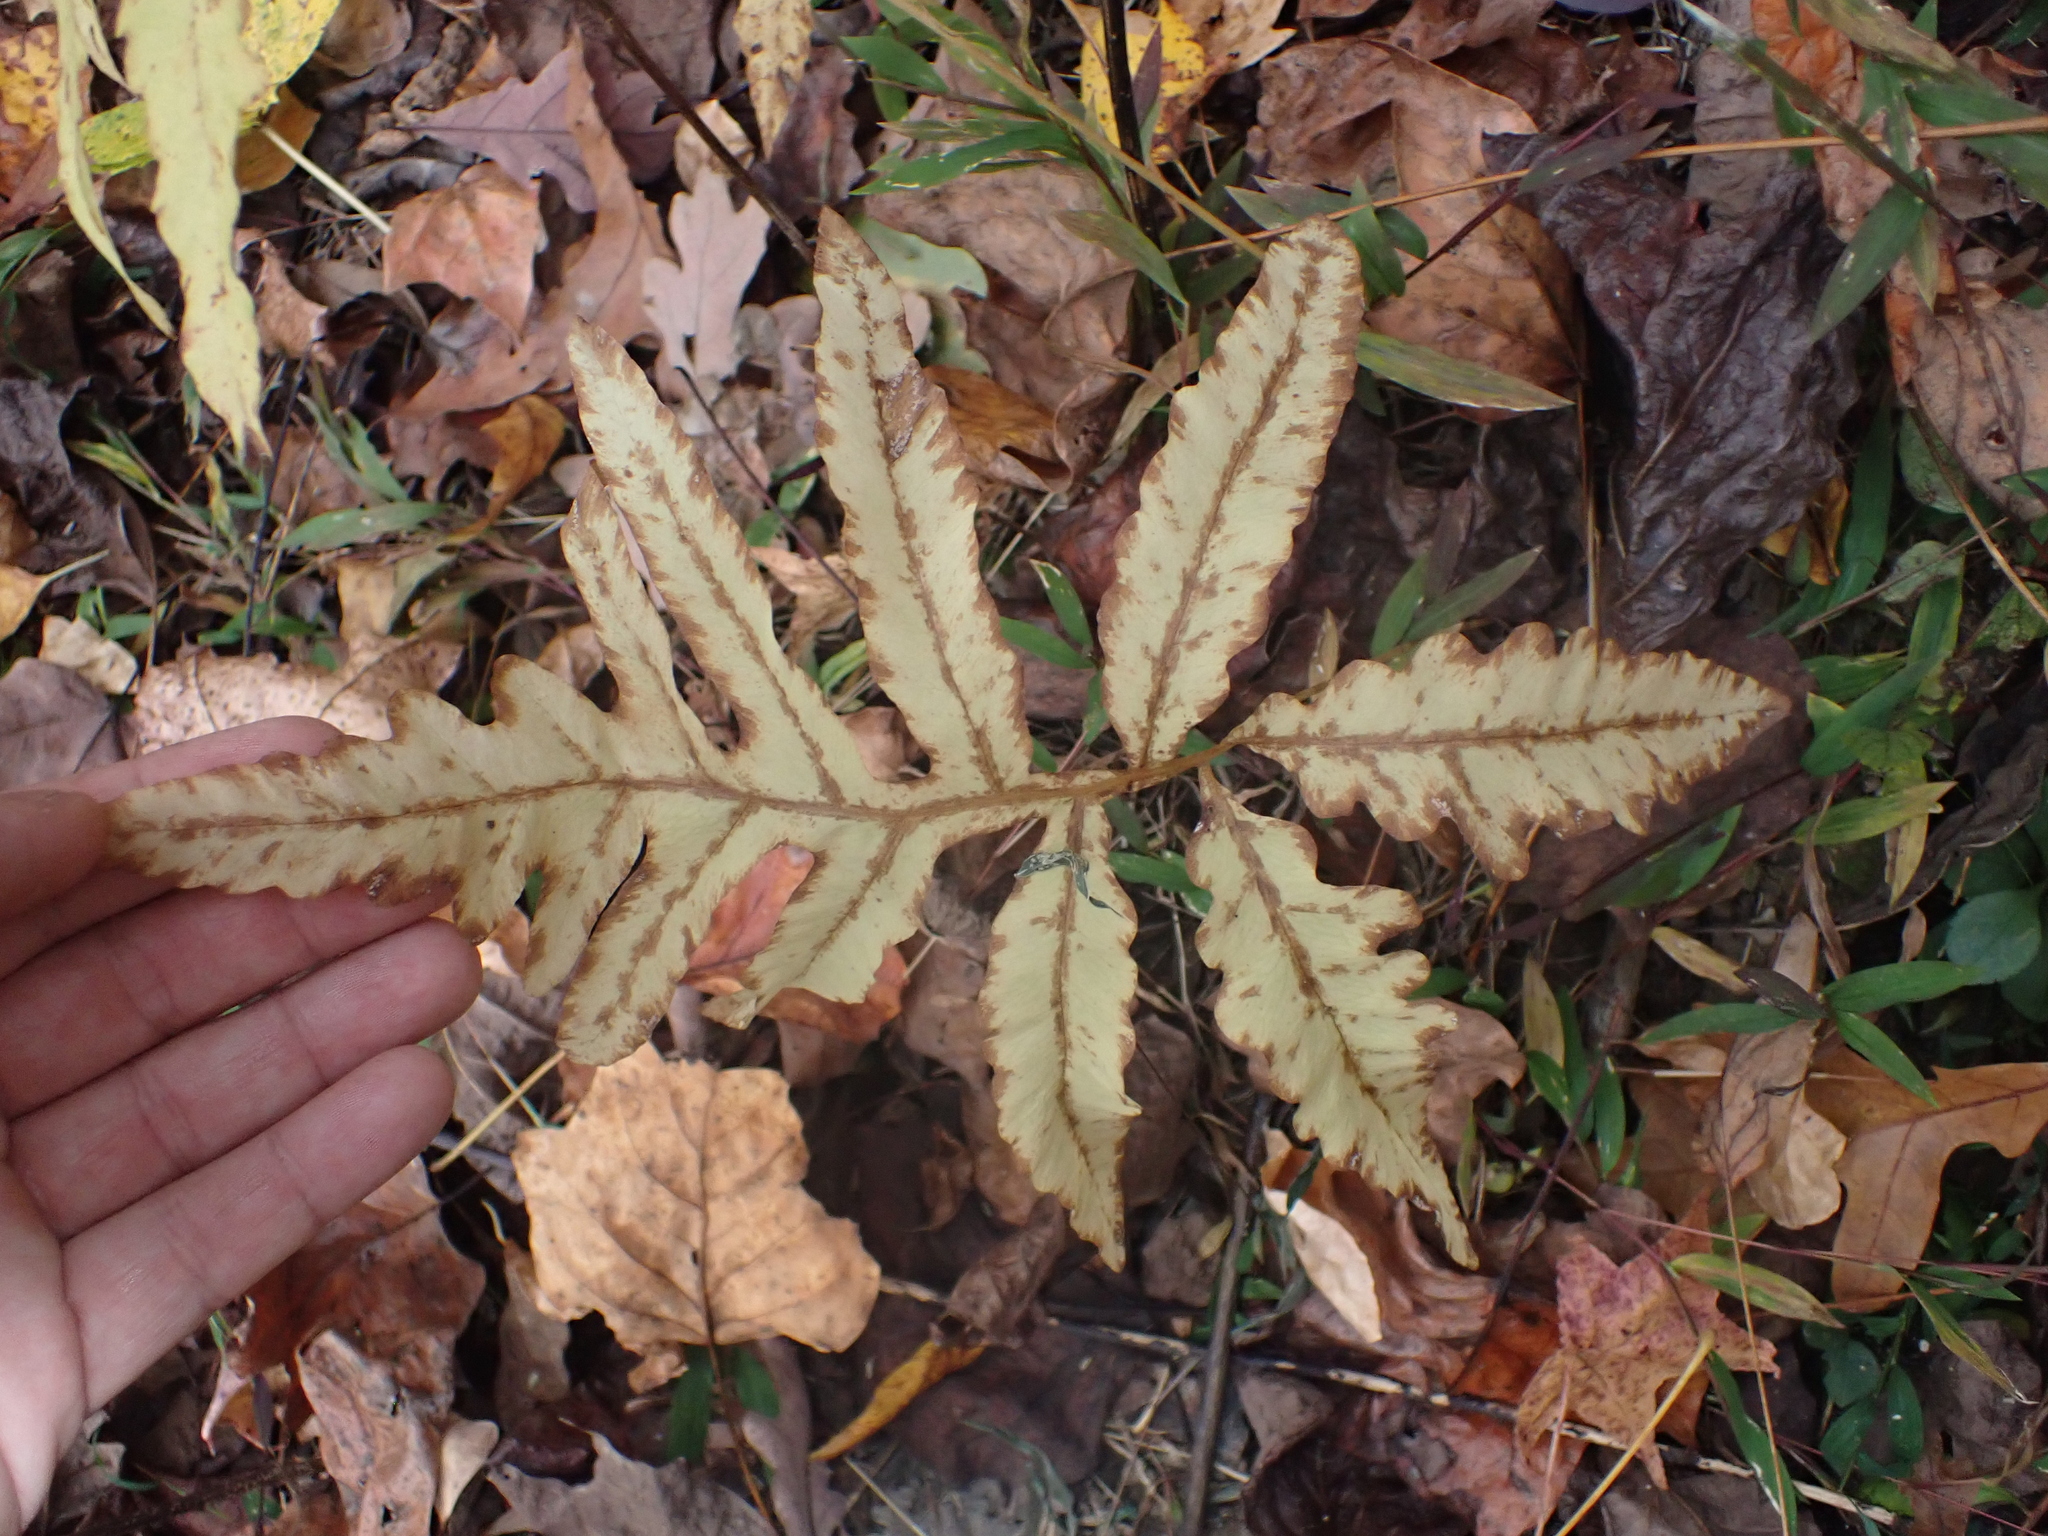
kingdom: Plantae
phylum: Tracheophyta
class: Polypodiopsida
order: Polypodiales
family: Onocleaceae
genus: Onoclea
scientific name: Onoclea sensibilis
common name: Sensitive fern
